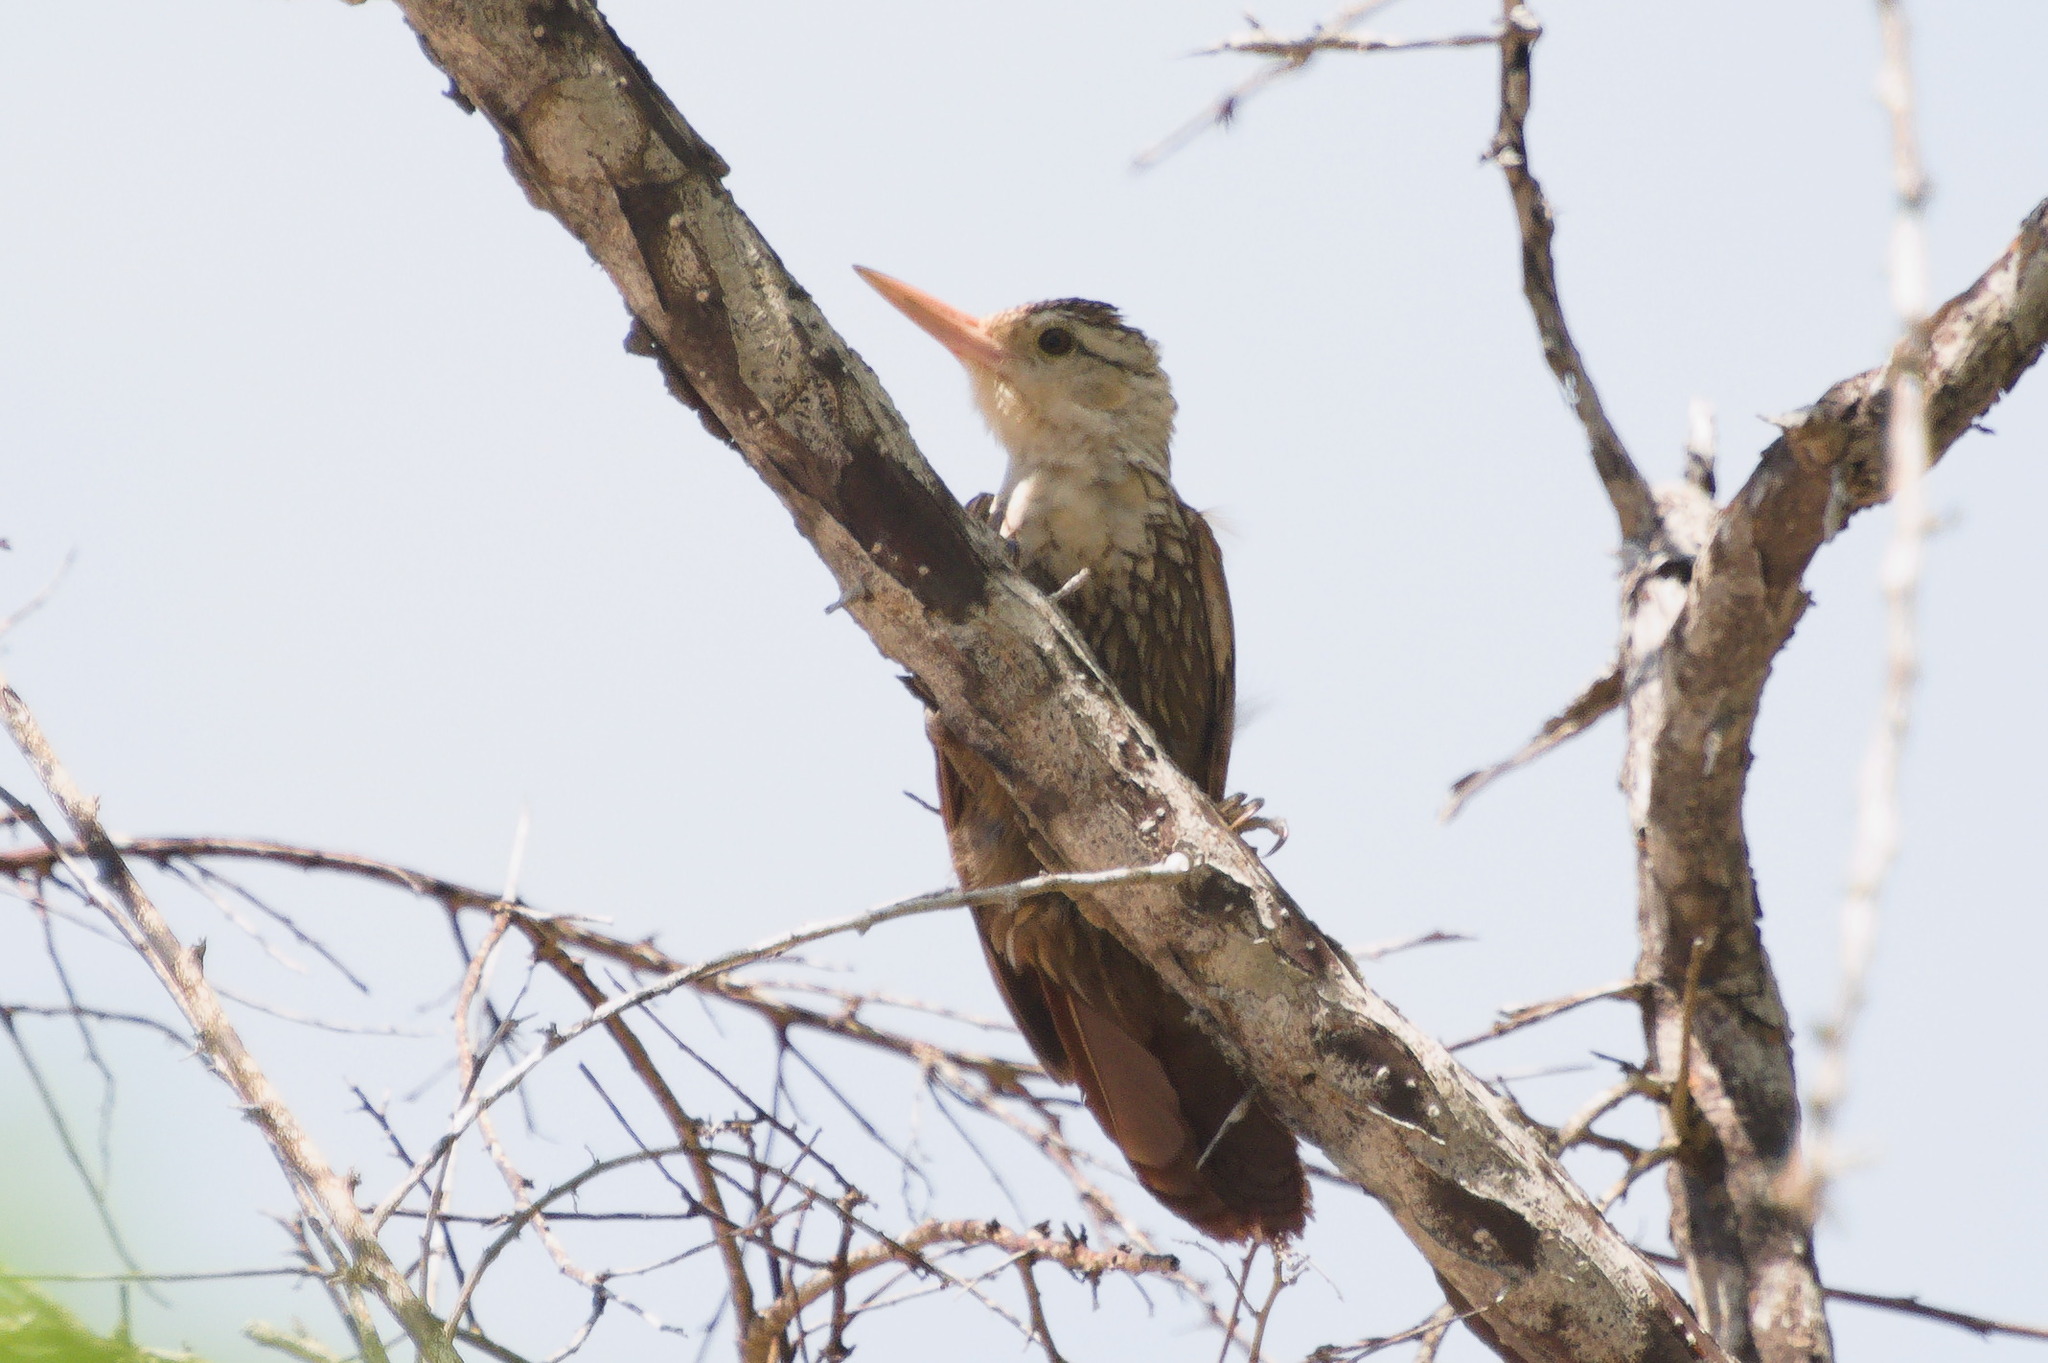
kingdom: Animalia
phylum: Chordata
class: Aves
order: Passeriformes
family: Furnariidae
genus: Xiphorhynchus
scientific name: Xiphorhynchus picus
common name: Straight-billed woodcreeper
